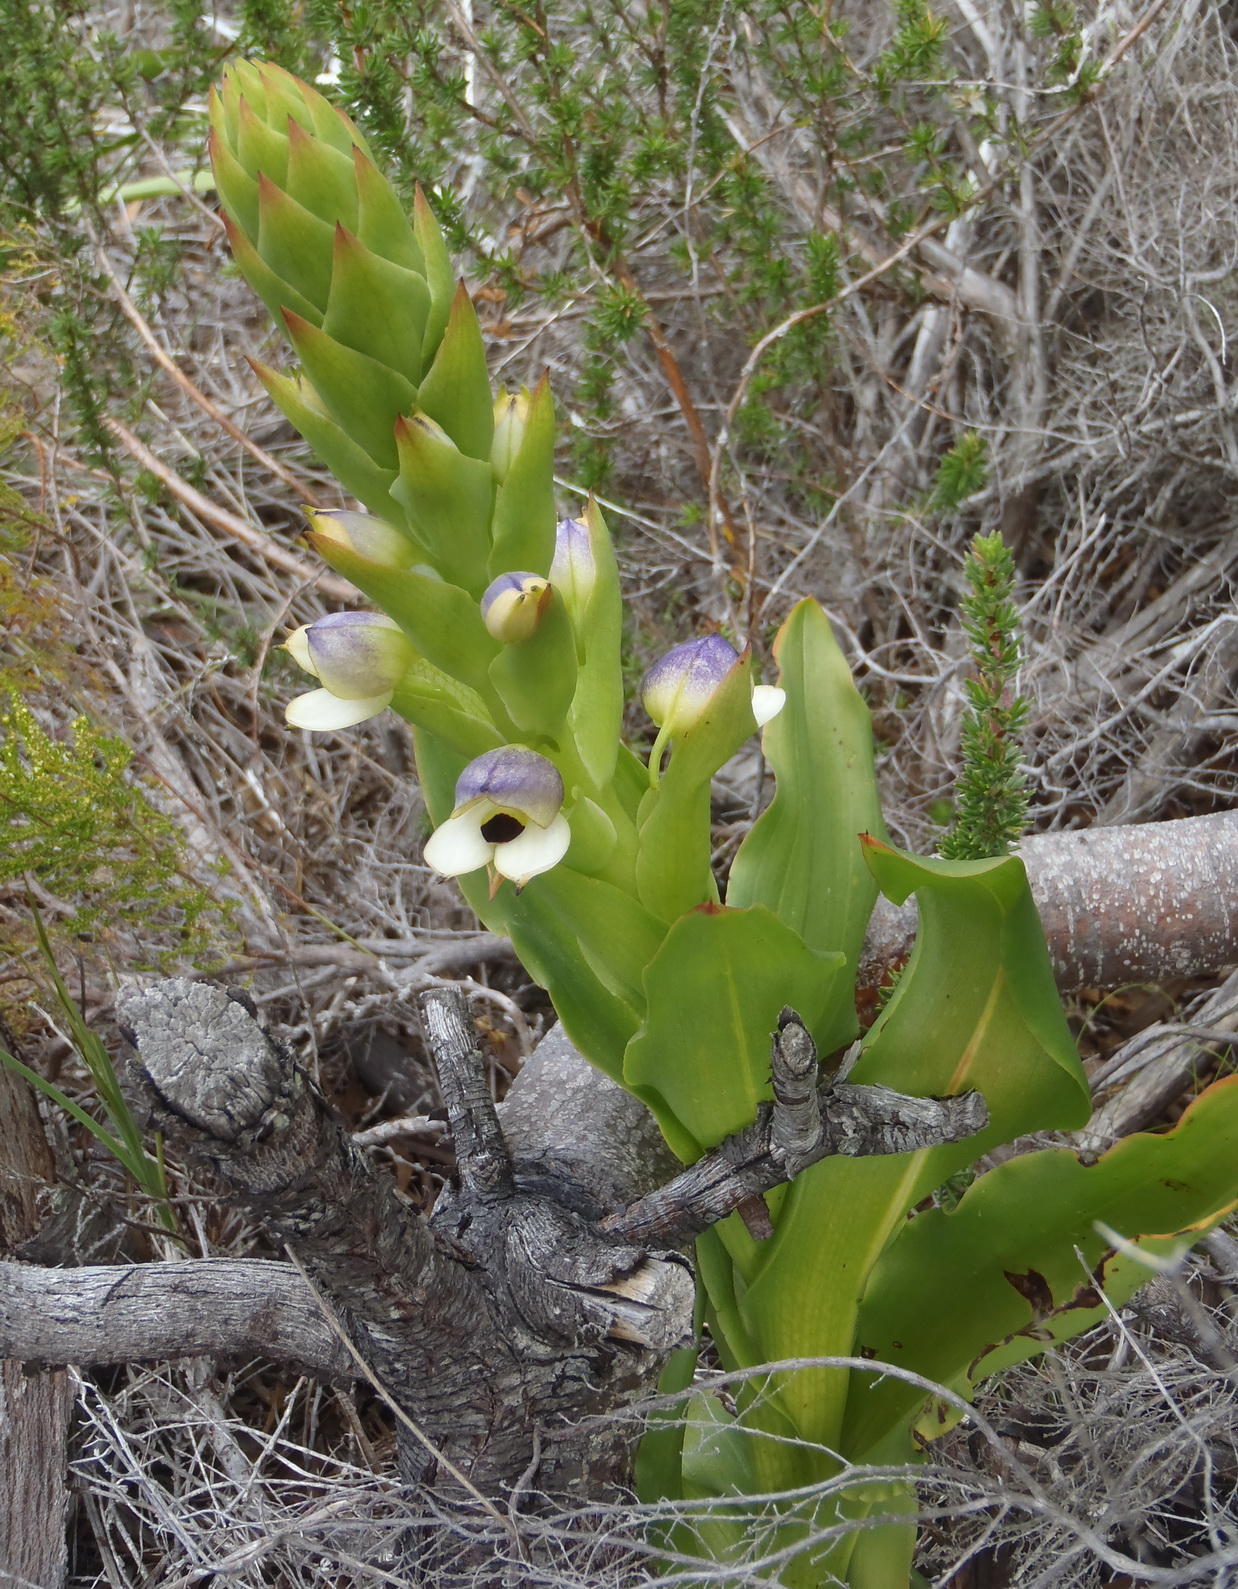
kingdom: Plantae
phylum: Tracheophyta
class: Liliopsida
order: Asparagales
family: Orchidaceae
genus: Disa
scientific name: Disa cornuta
